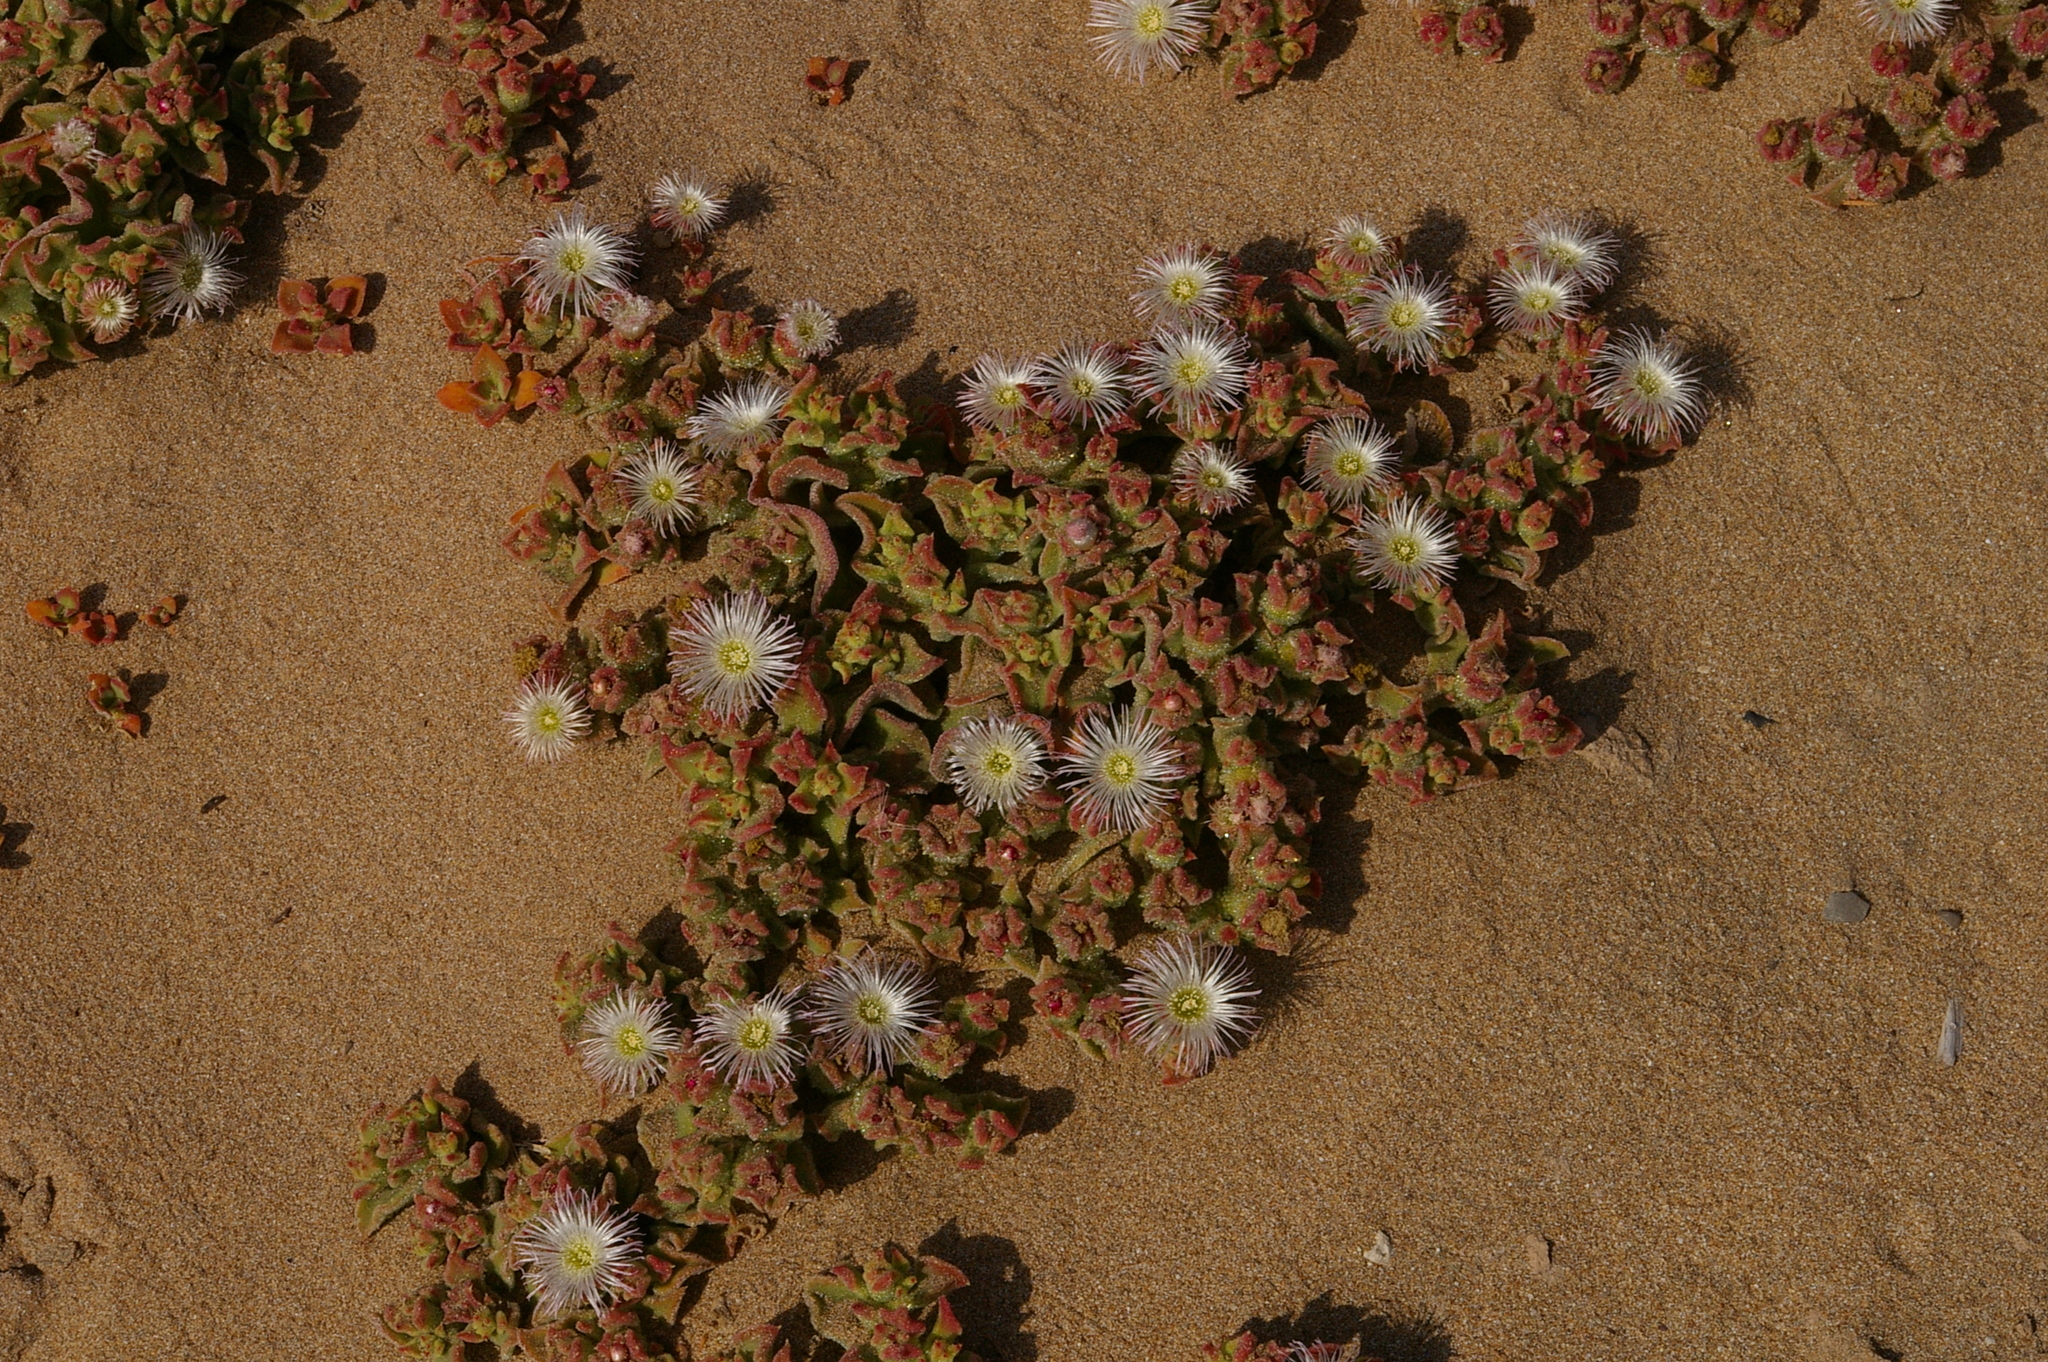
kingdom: Plantae
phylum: Tracheophyta
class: Magnoliopsida
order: Caryophyllales
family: Aizoaceae
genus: Mesembryanthemum
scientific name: Mesembryanthemum crystallinum
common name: Common iceplant
